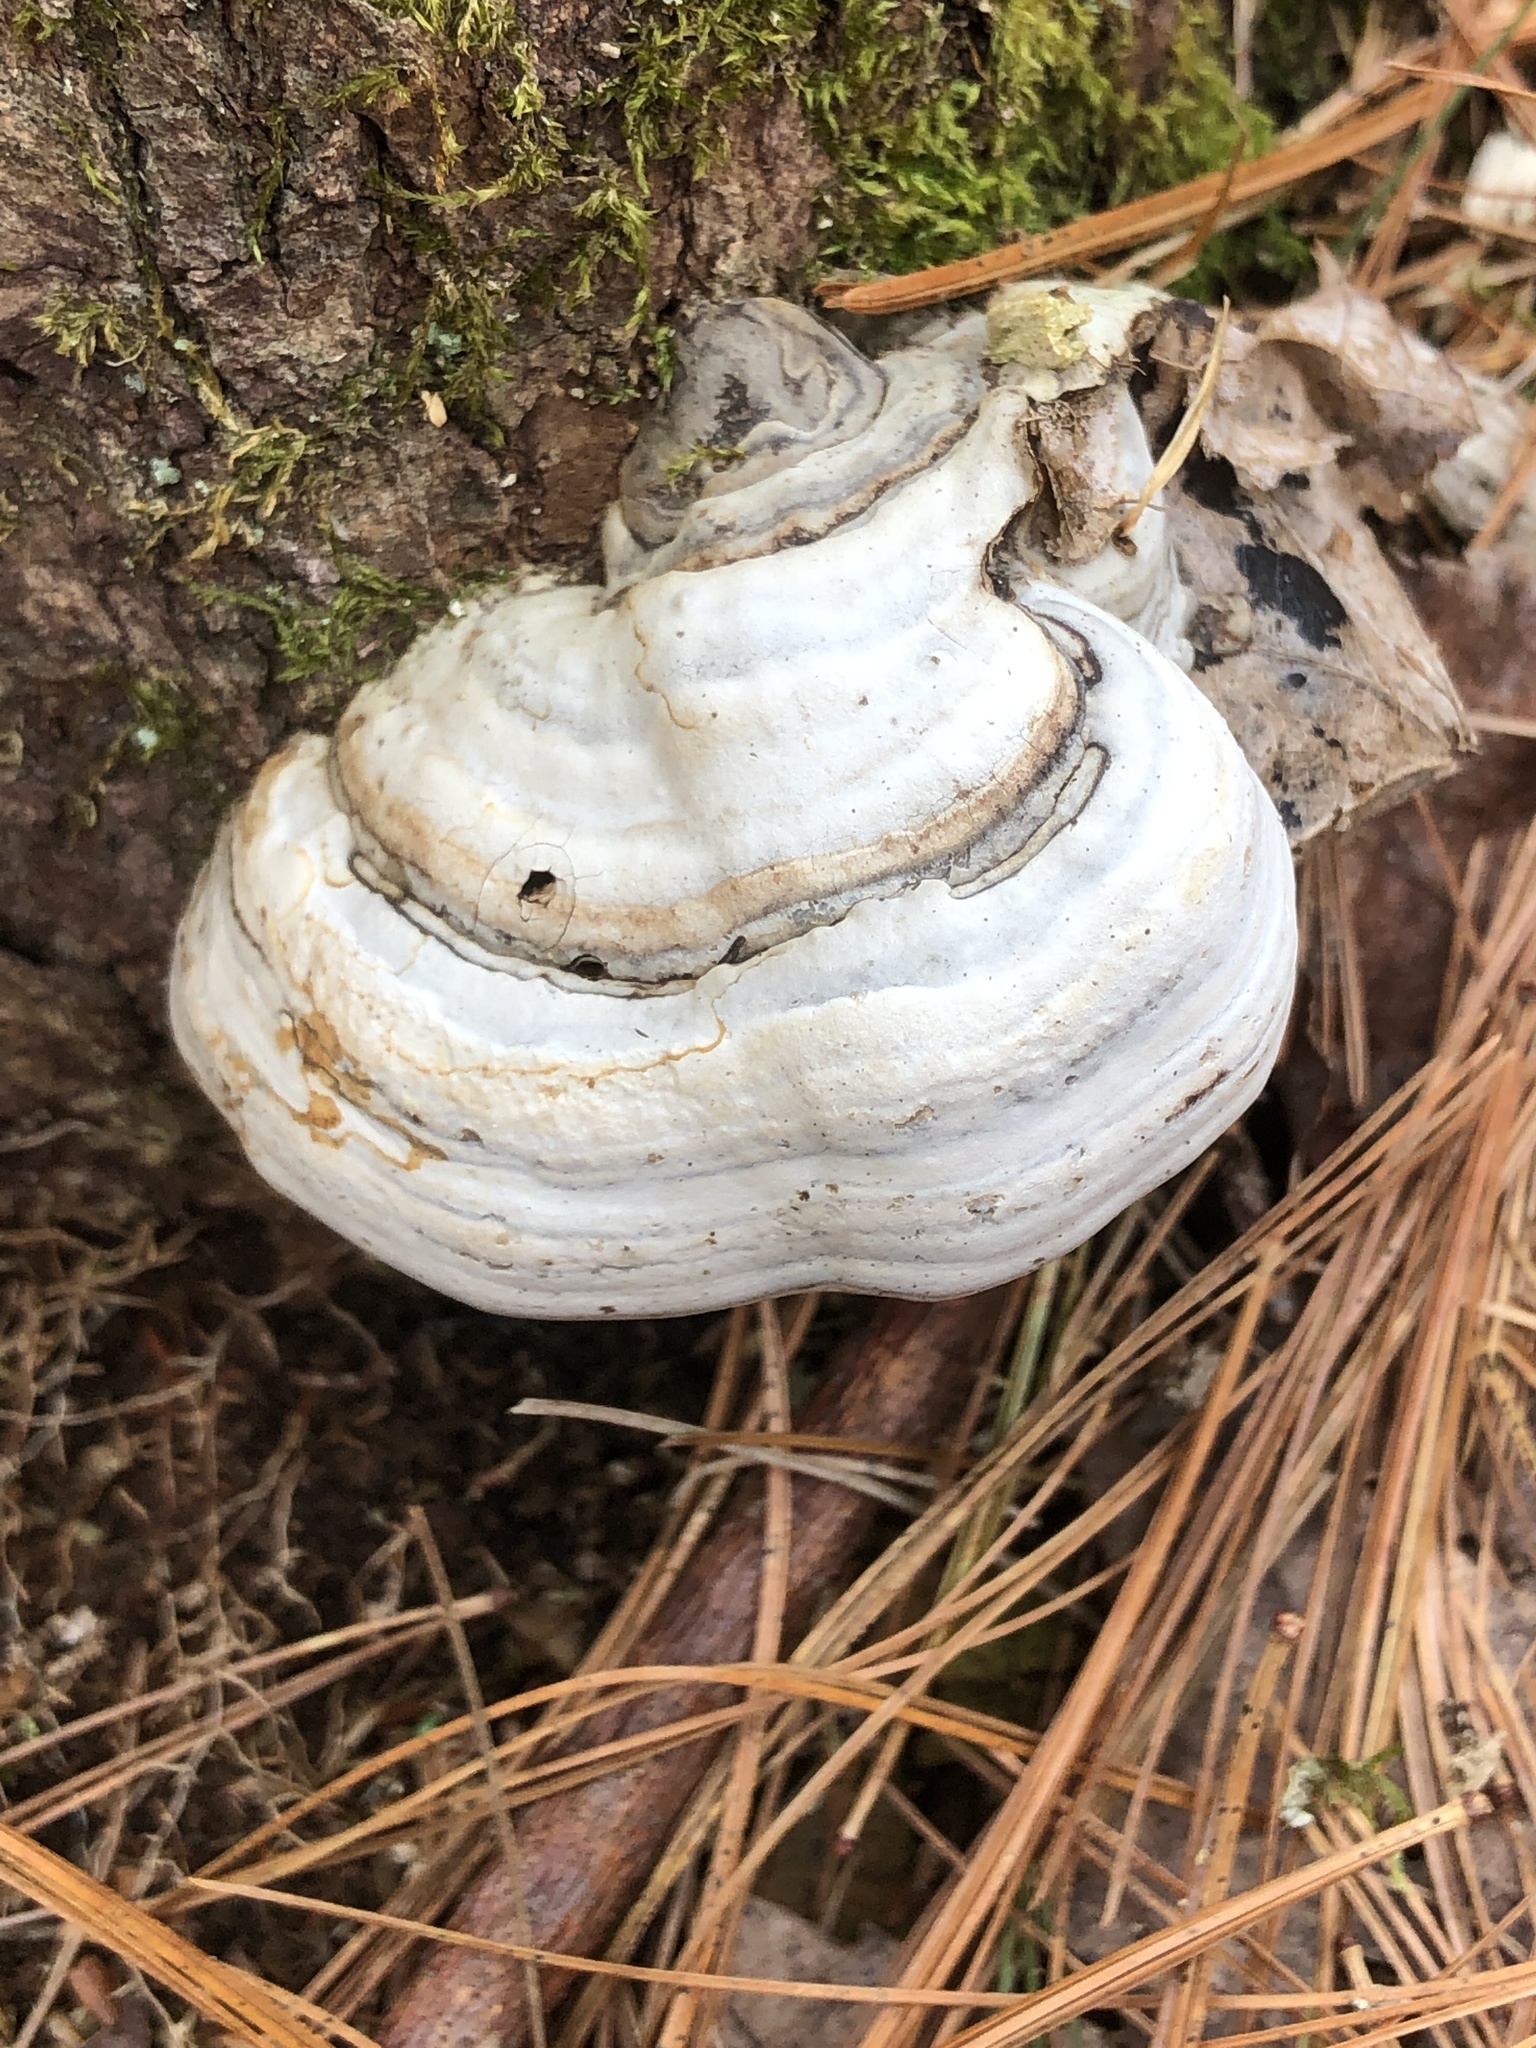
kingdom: Fungi
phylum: Basidiomycota
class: Agaricomycetes
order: Polyporales
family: Polyporaceae
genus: Fomes
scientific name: Fomes fomentarius
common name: Hoof fungus
